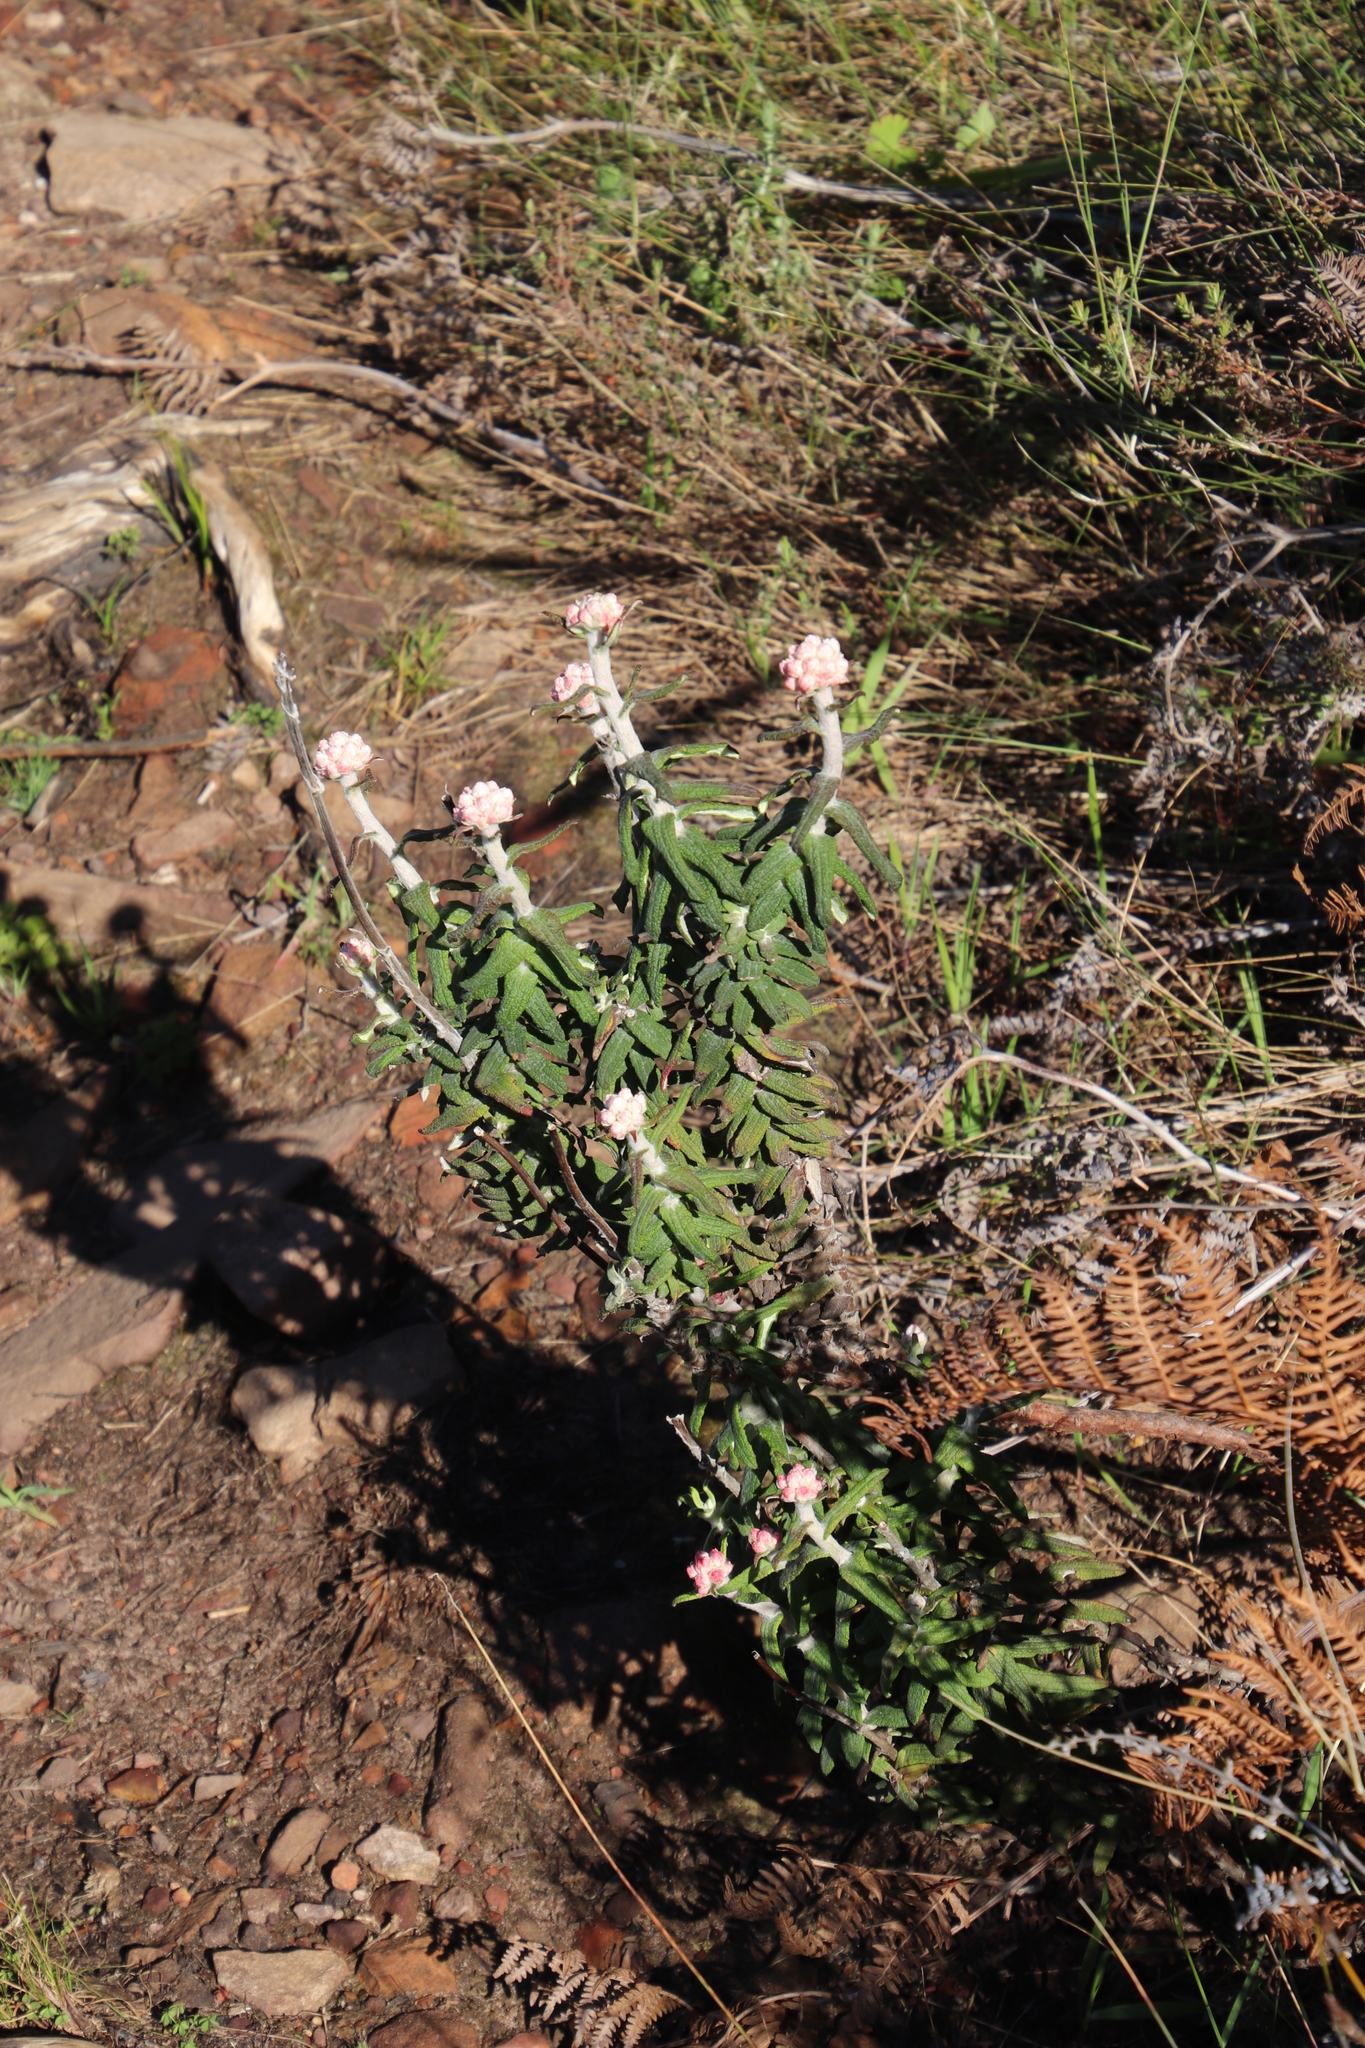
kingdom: Plantae
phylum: Tracheophyta
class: Magnoliopsida
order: Asterales
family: Asteraceae
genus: Helichrysum
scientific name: Helichrysum felinum
